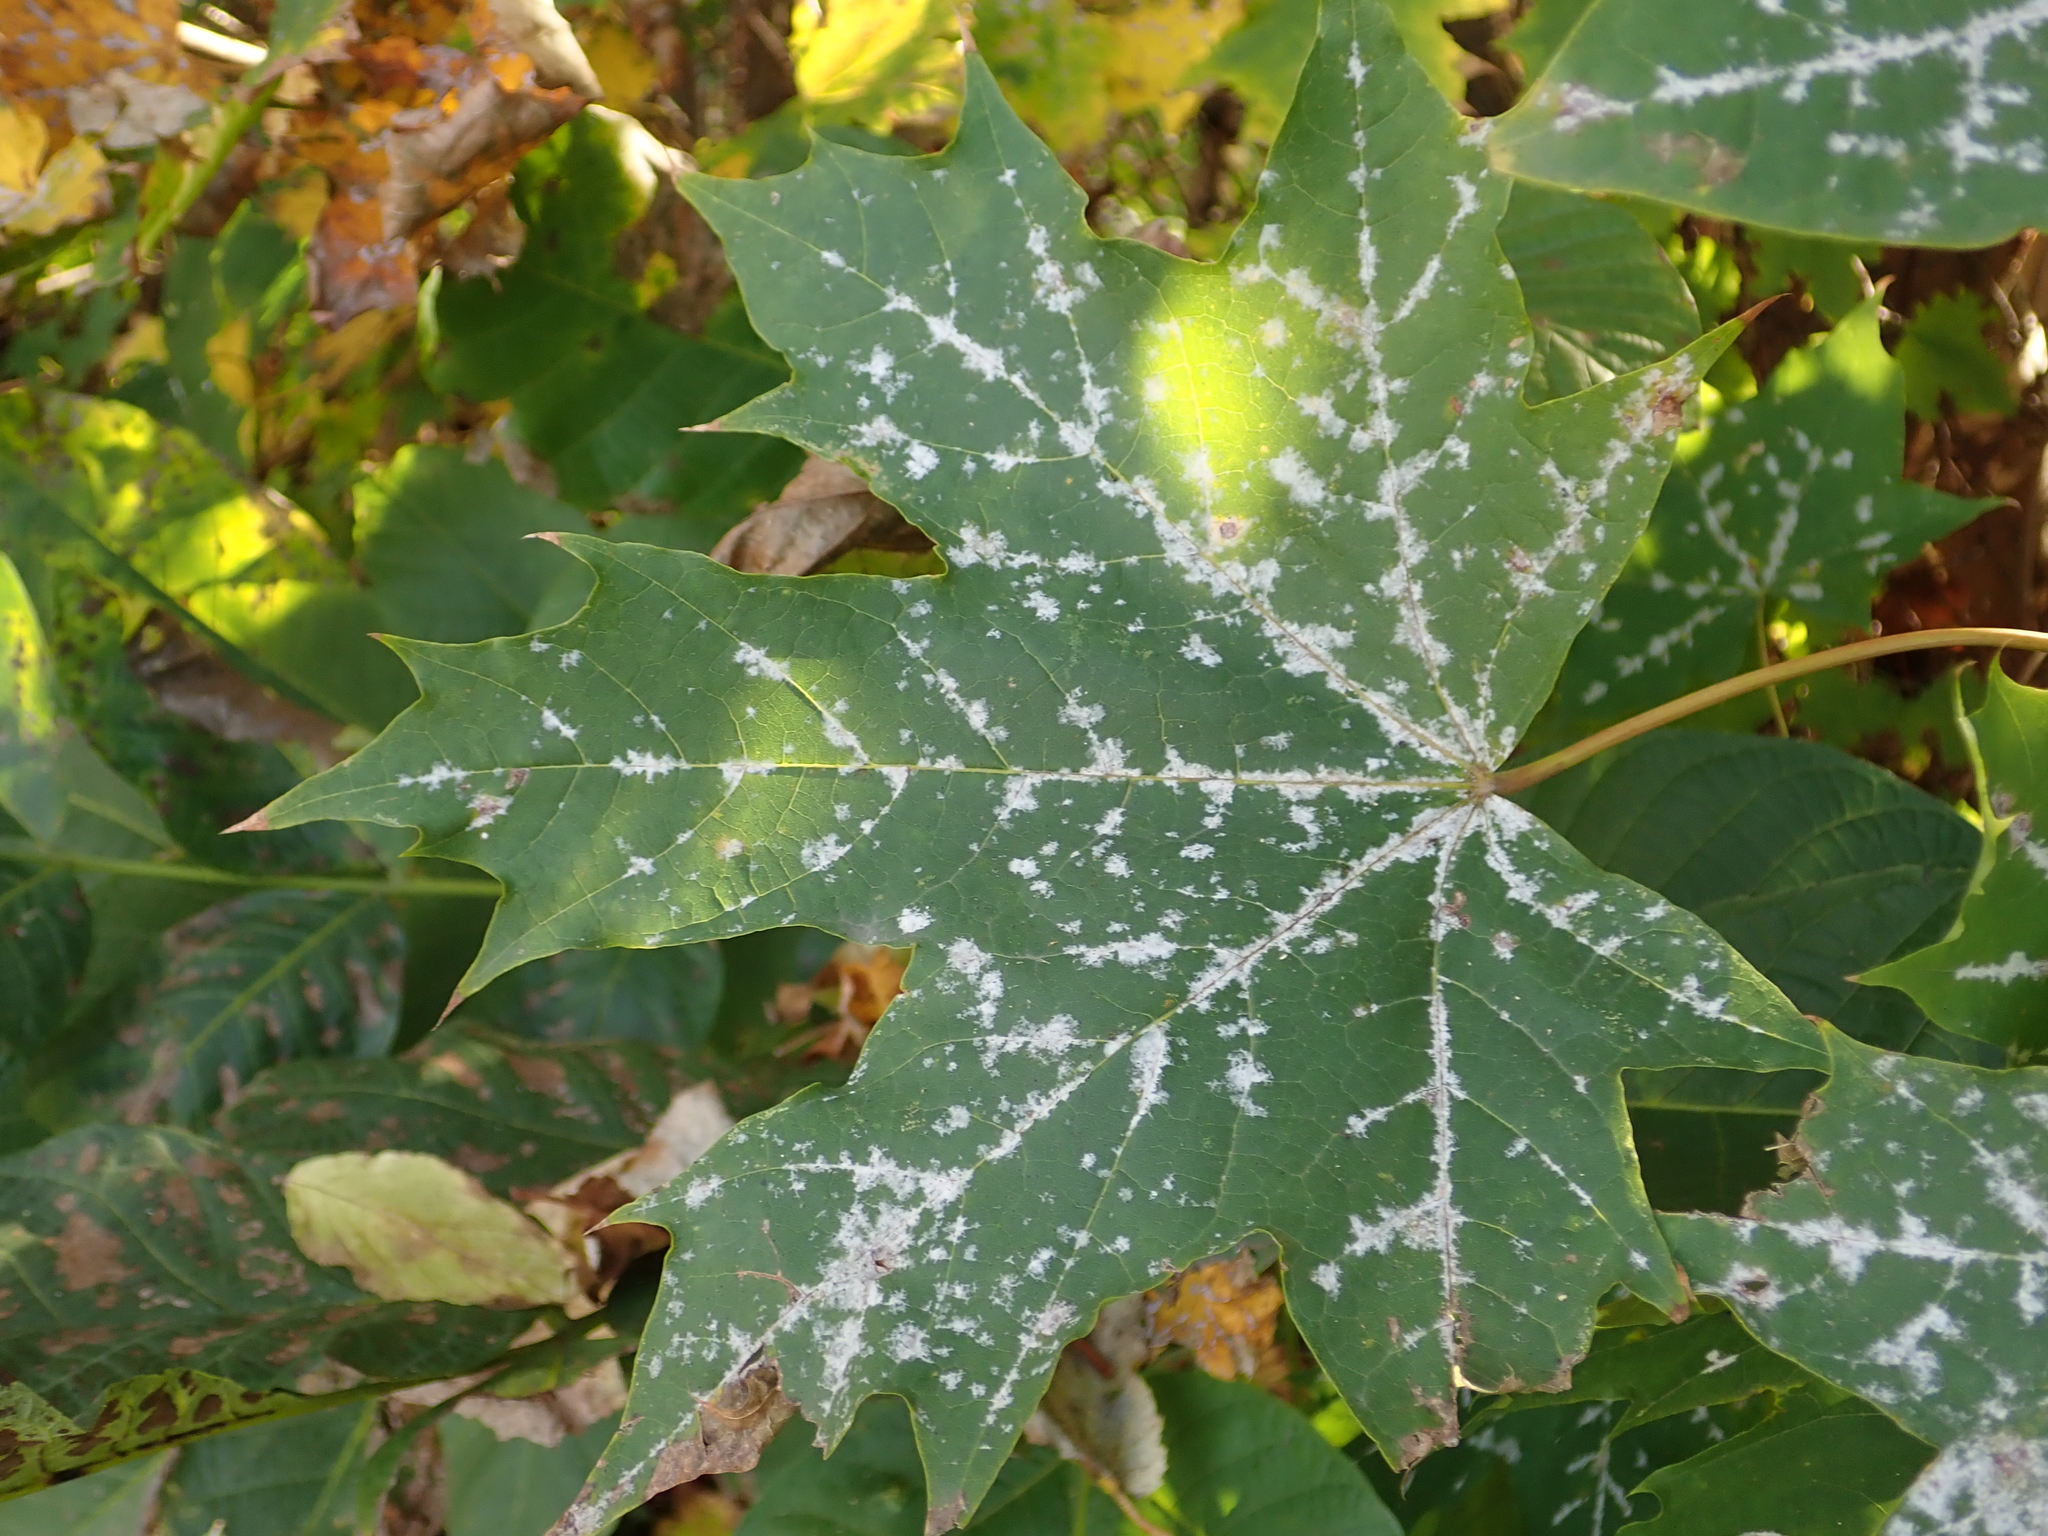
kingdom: Plantae
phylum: Tracheophyta
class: Magnoliopsida
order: Sapindales
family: Sapindaceae
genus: Acer
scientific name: Acer platanoides
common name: Norway maple
